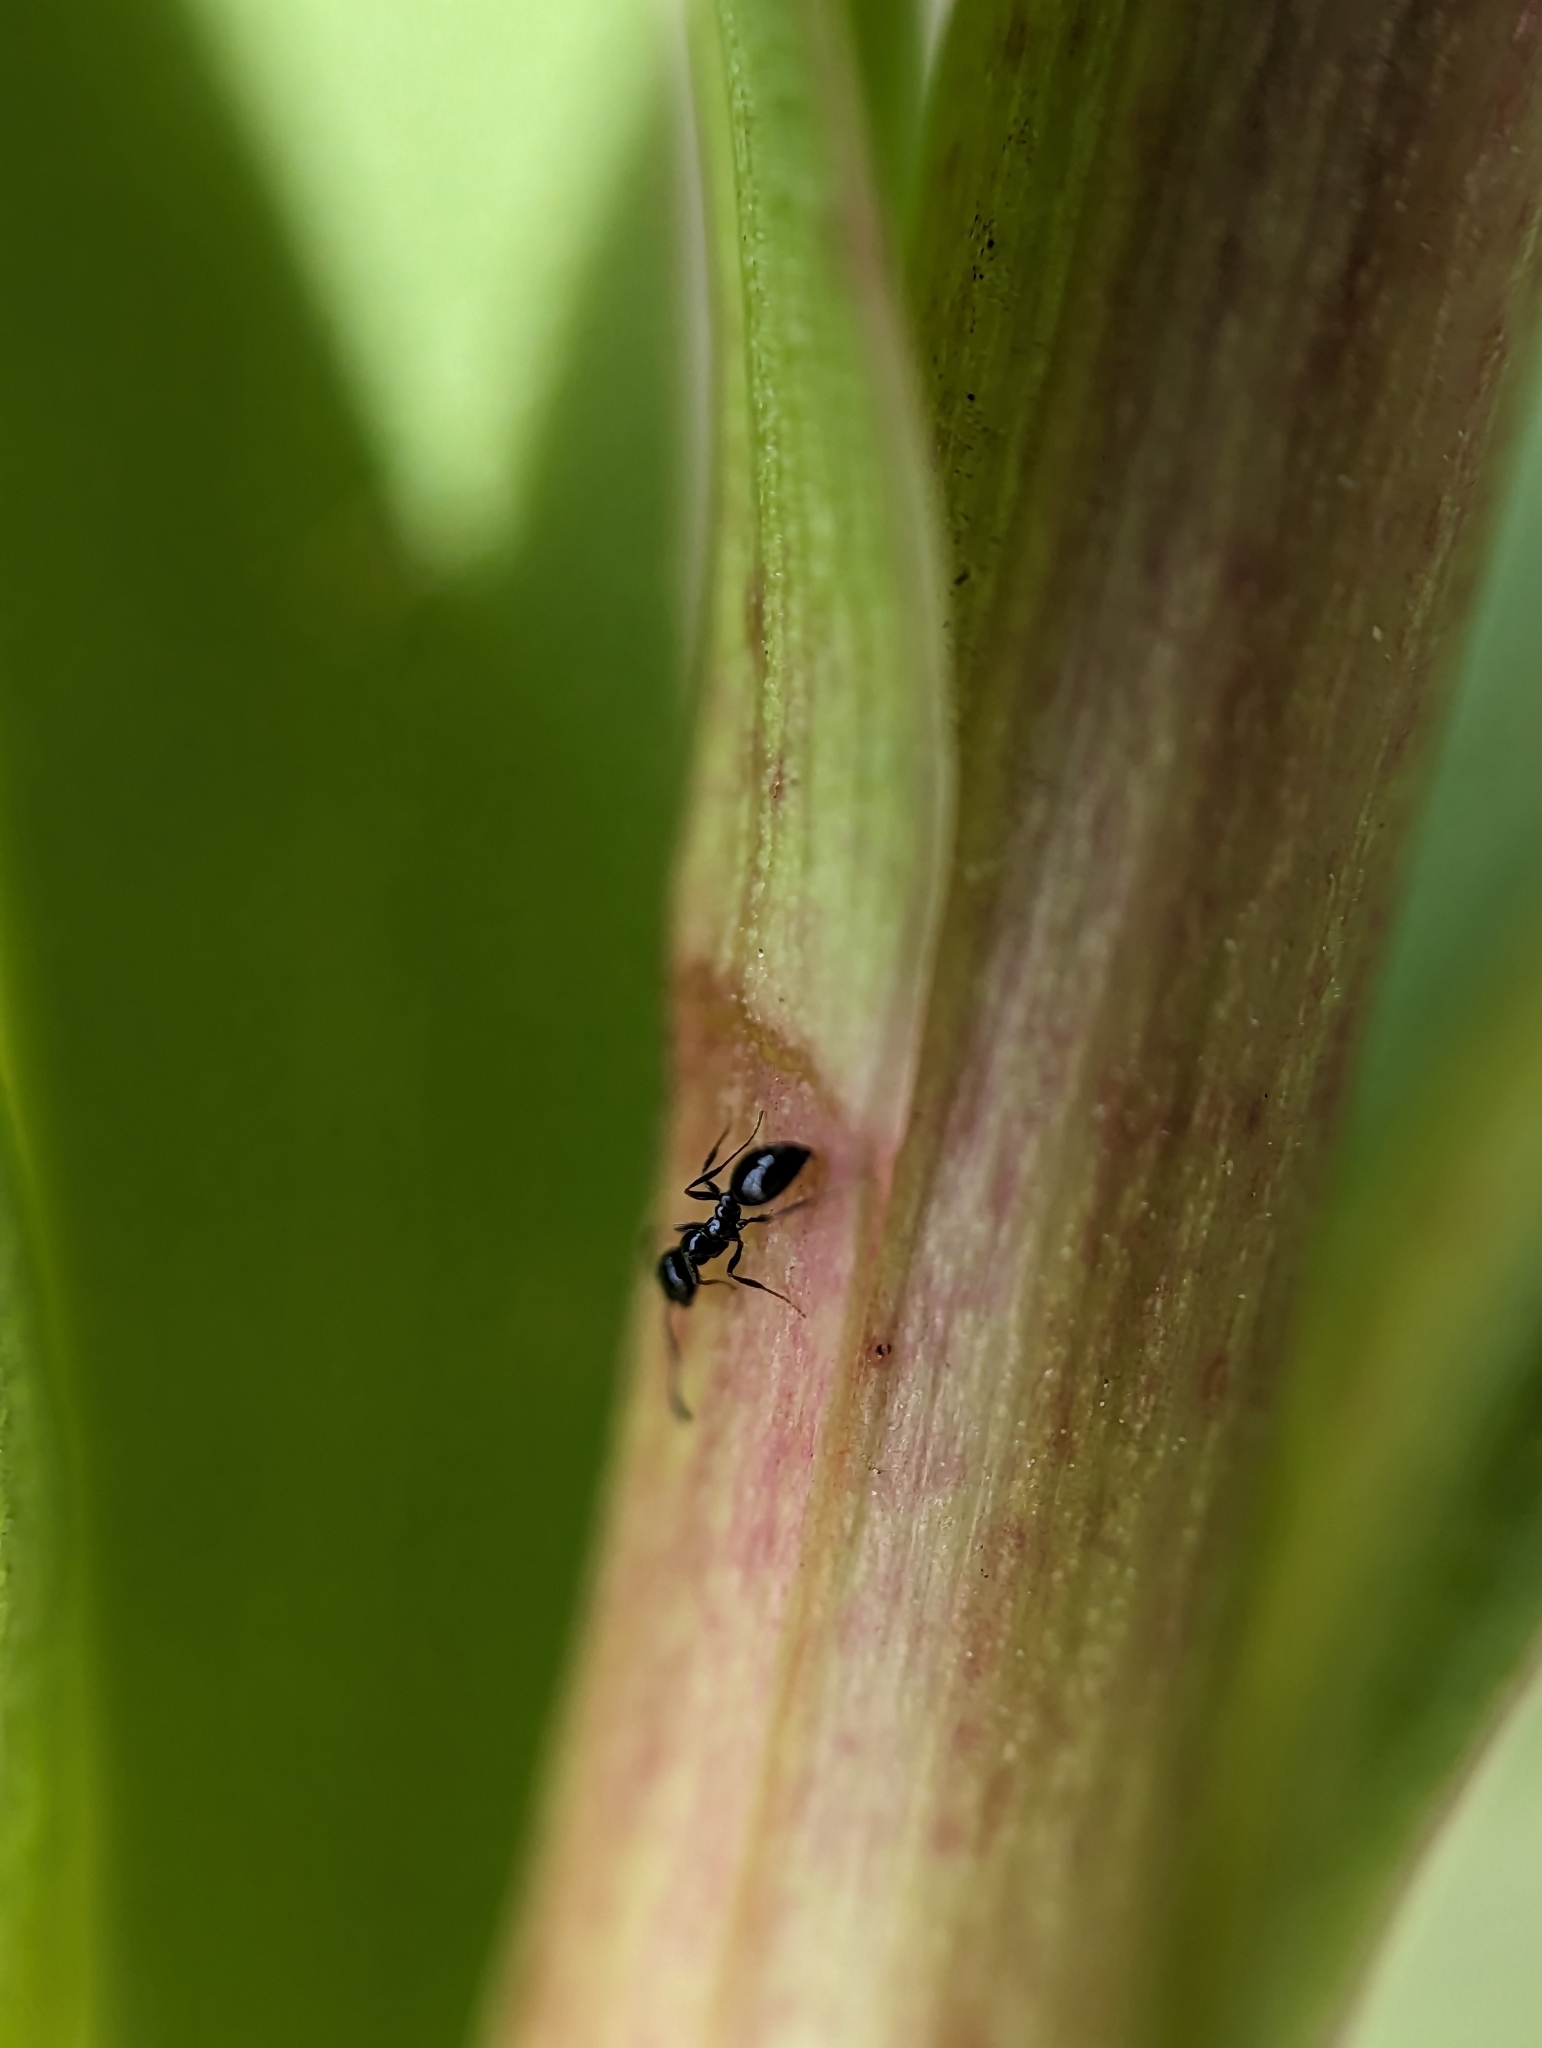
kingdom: Animalia
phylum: Arthropoda
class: Insecta
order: Hymenoptera
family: Formicidae
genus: Monomorium
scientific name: Monomorium minimum
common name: Little black ant
